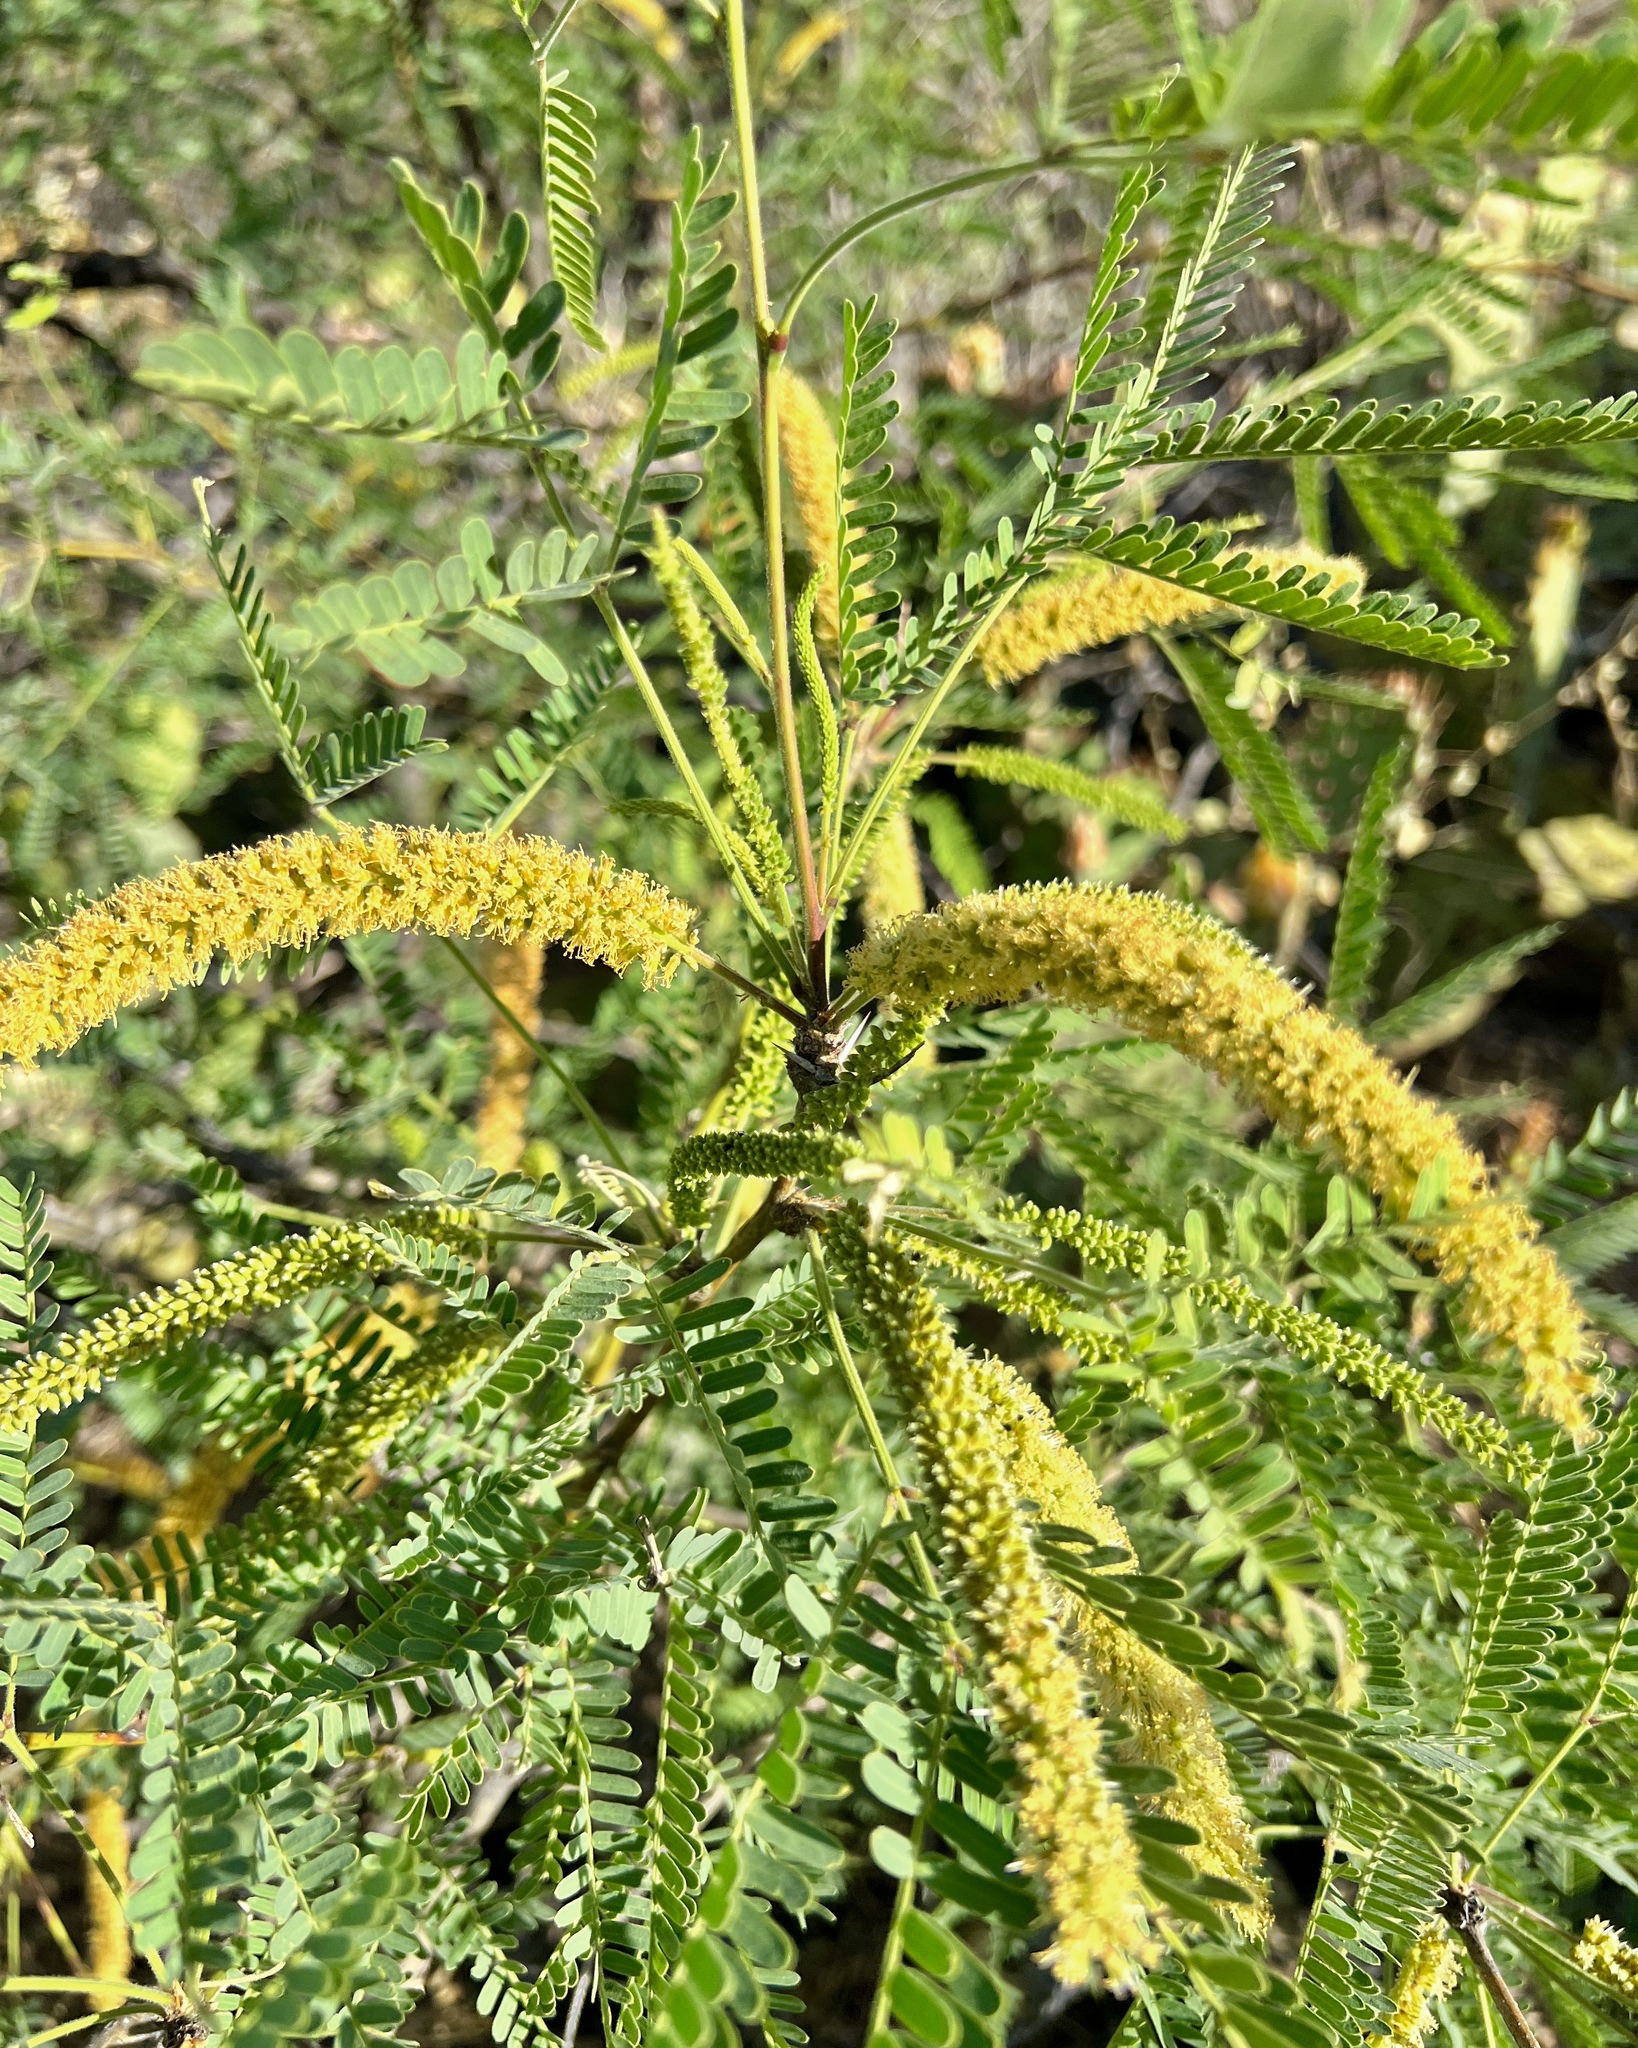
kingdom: Plantae
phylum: Tracheophyta
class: Magnoliopsida
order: Fabales
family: Fabaceae
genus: Prosopis
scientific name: Prosopis velutina
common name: Velvet mesquite
